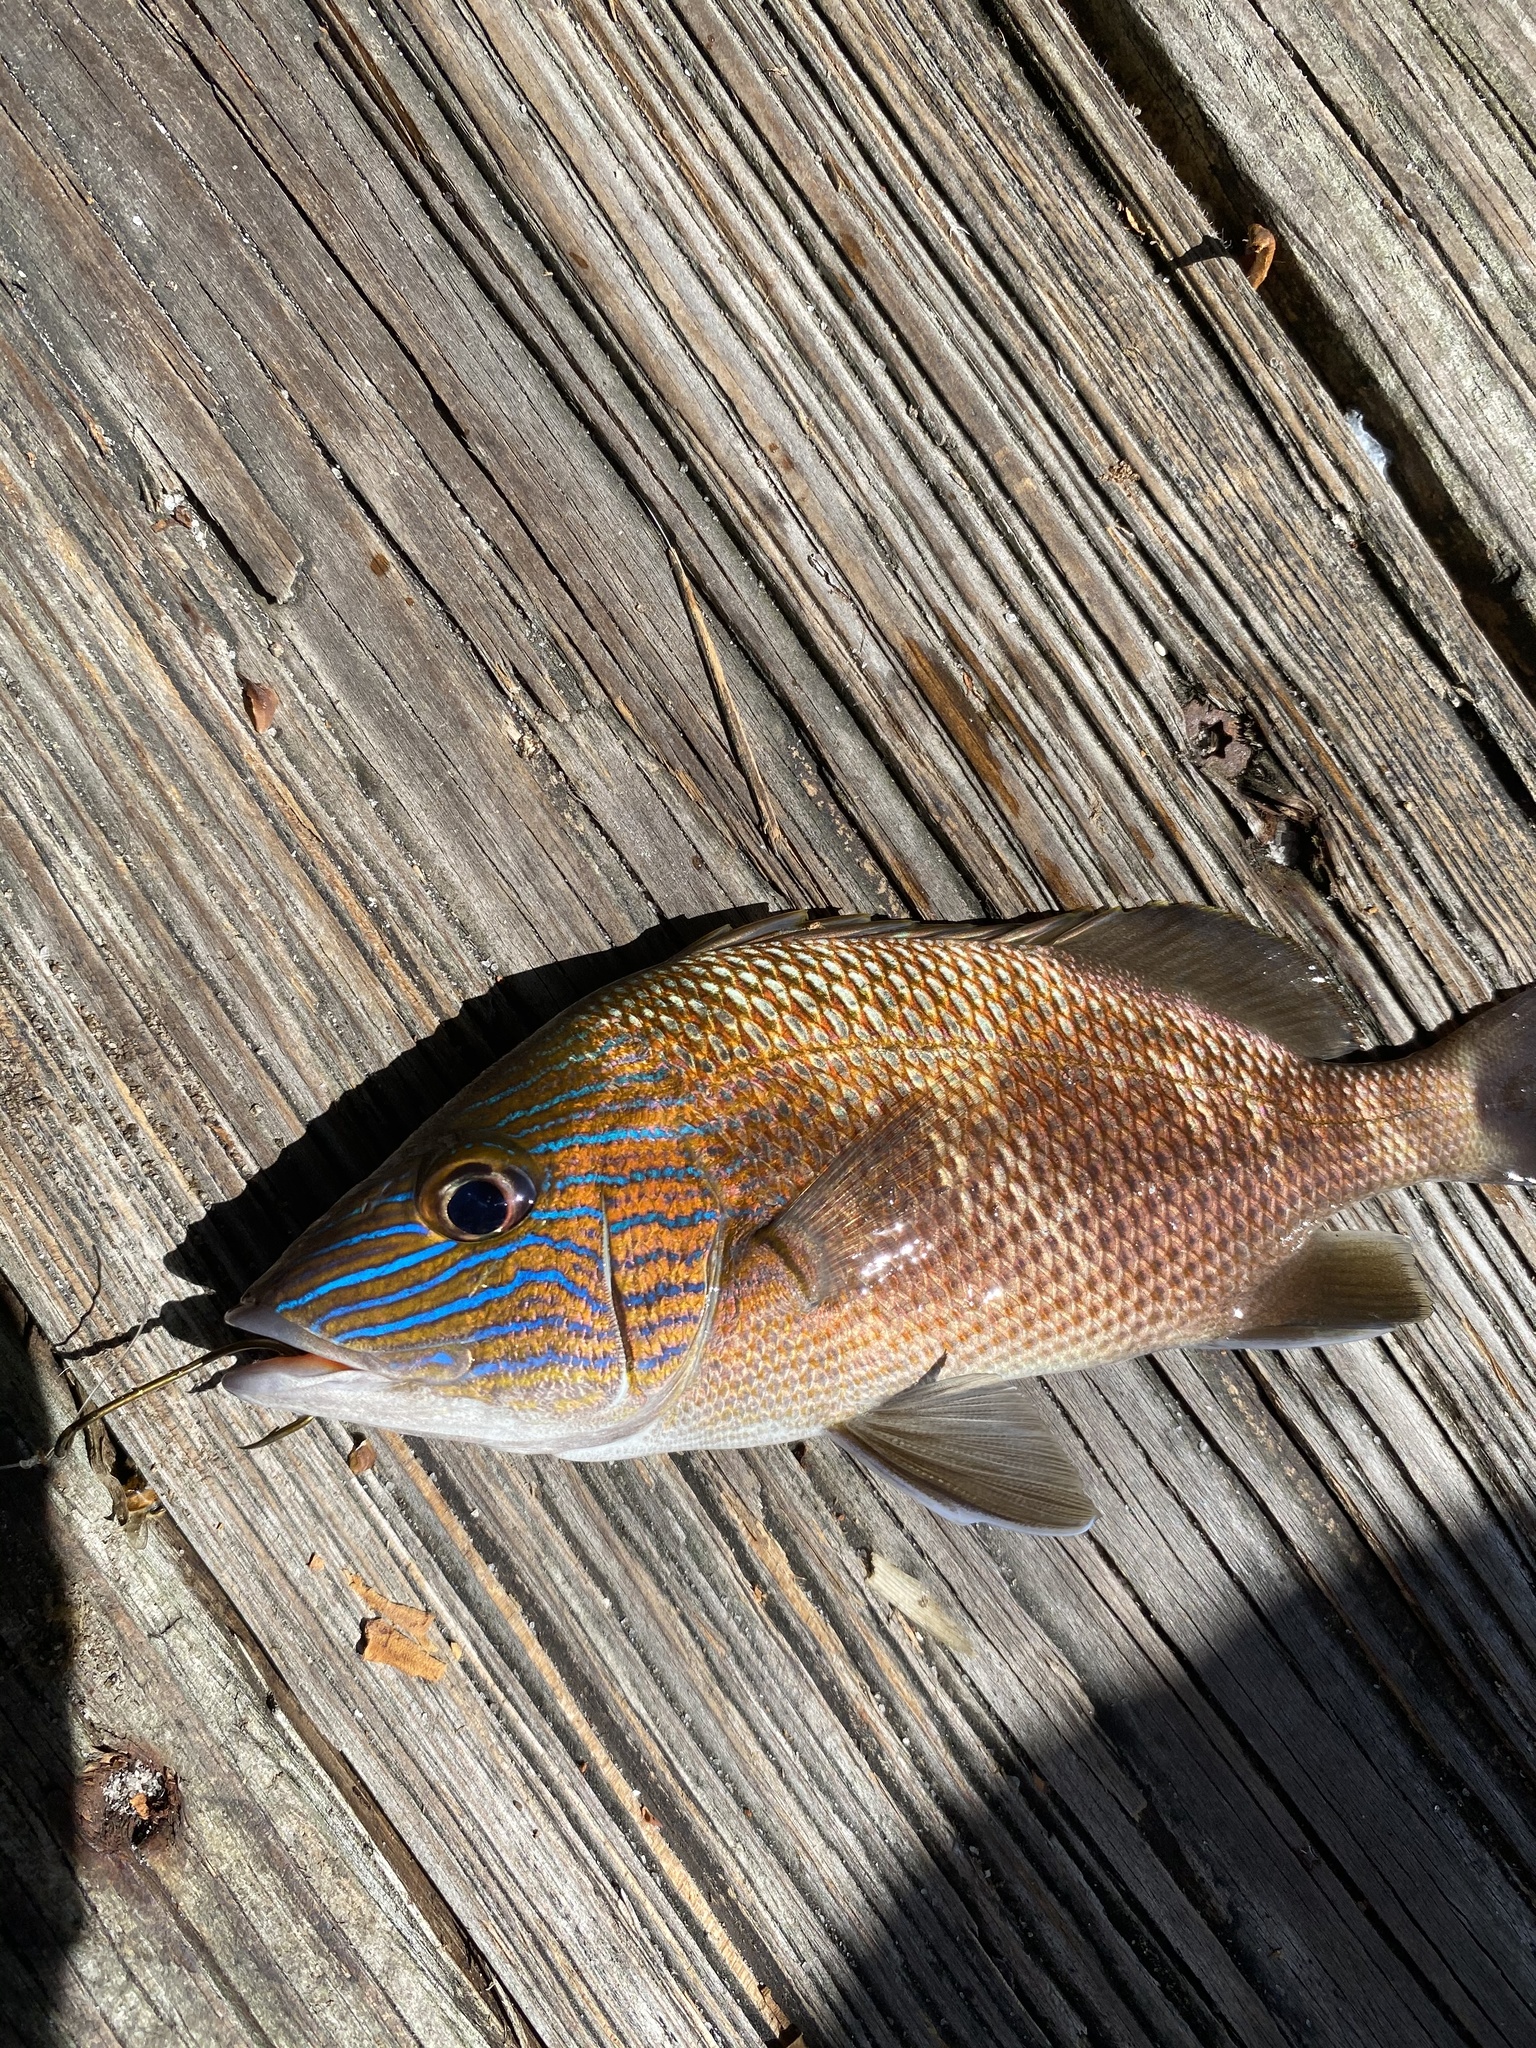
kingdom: Animalia
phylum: Chordata
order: Perciformes
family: Haemulidae
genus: Haemulon
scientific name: Haemulon plumierii
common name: White grunt
